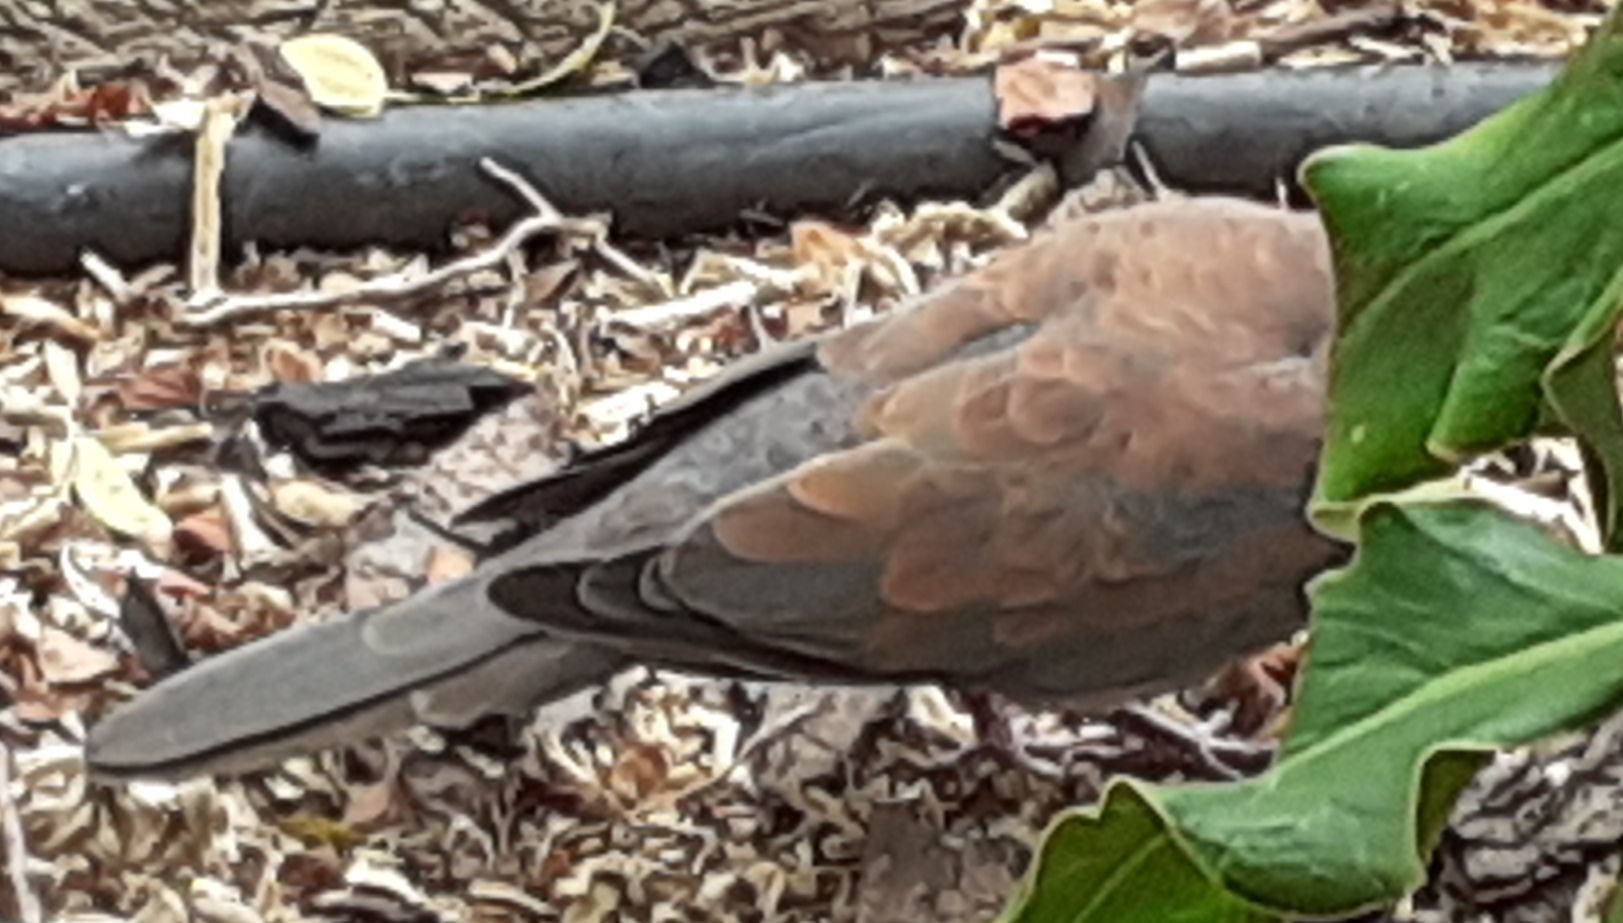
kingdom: Animalia
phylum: Chordata
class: Aves
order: Columbiformes
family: Columbidae
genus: Spilopelia
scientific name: Spilopelia senegalensis
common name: Laughing dove
